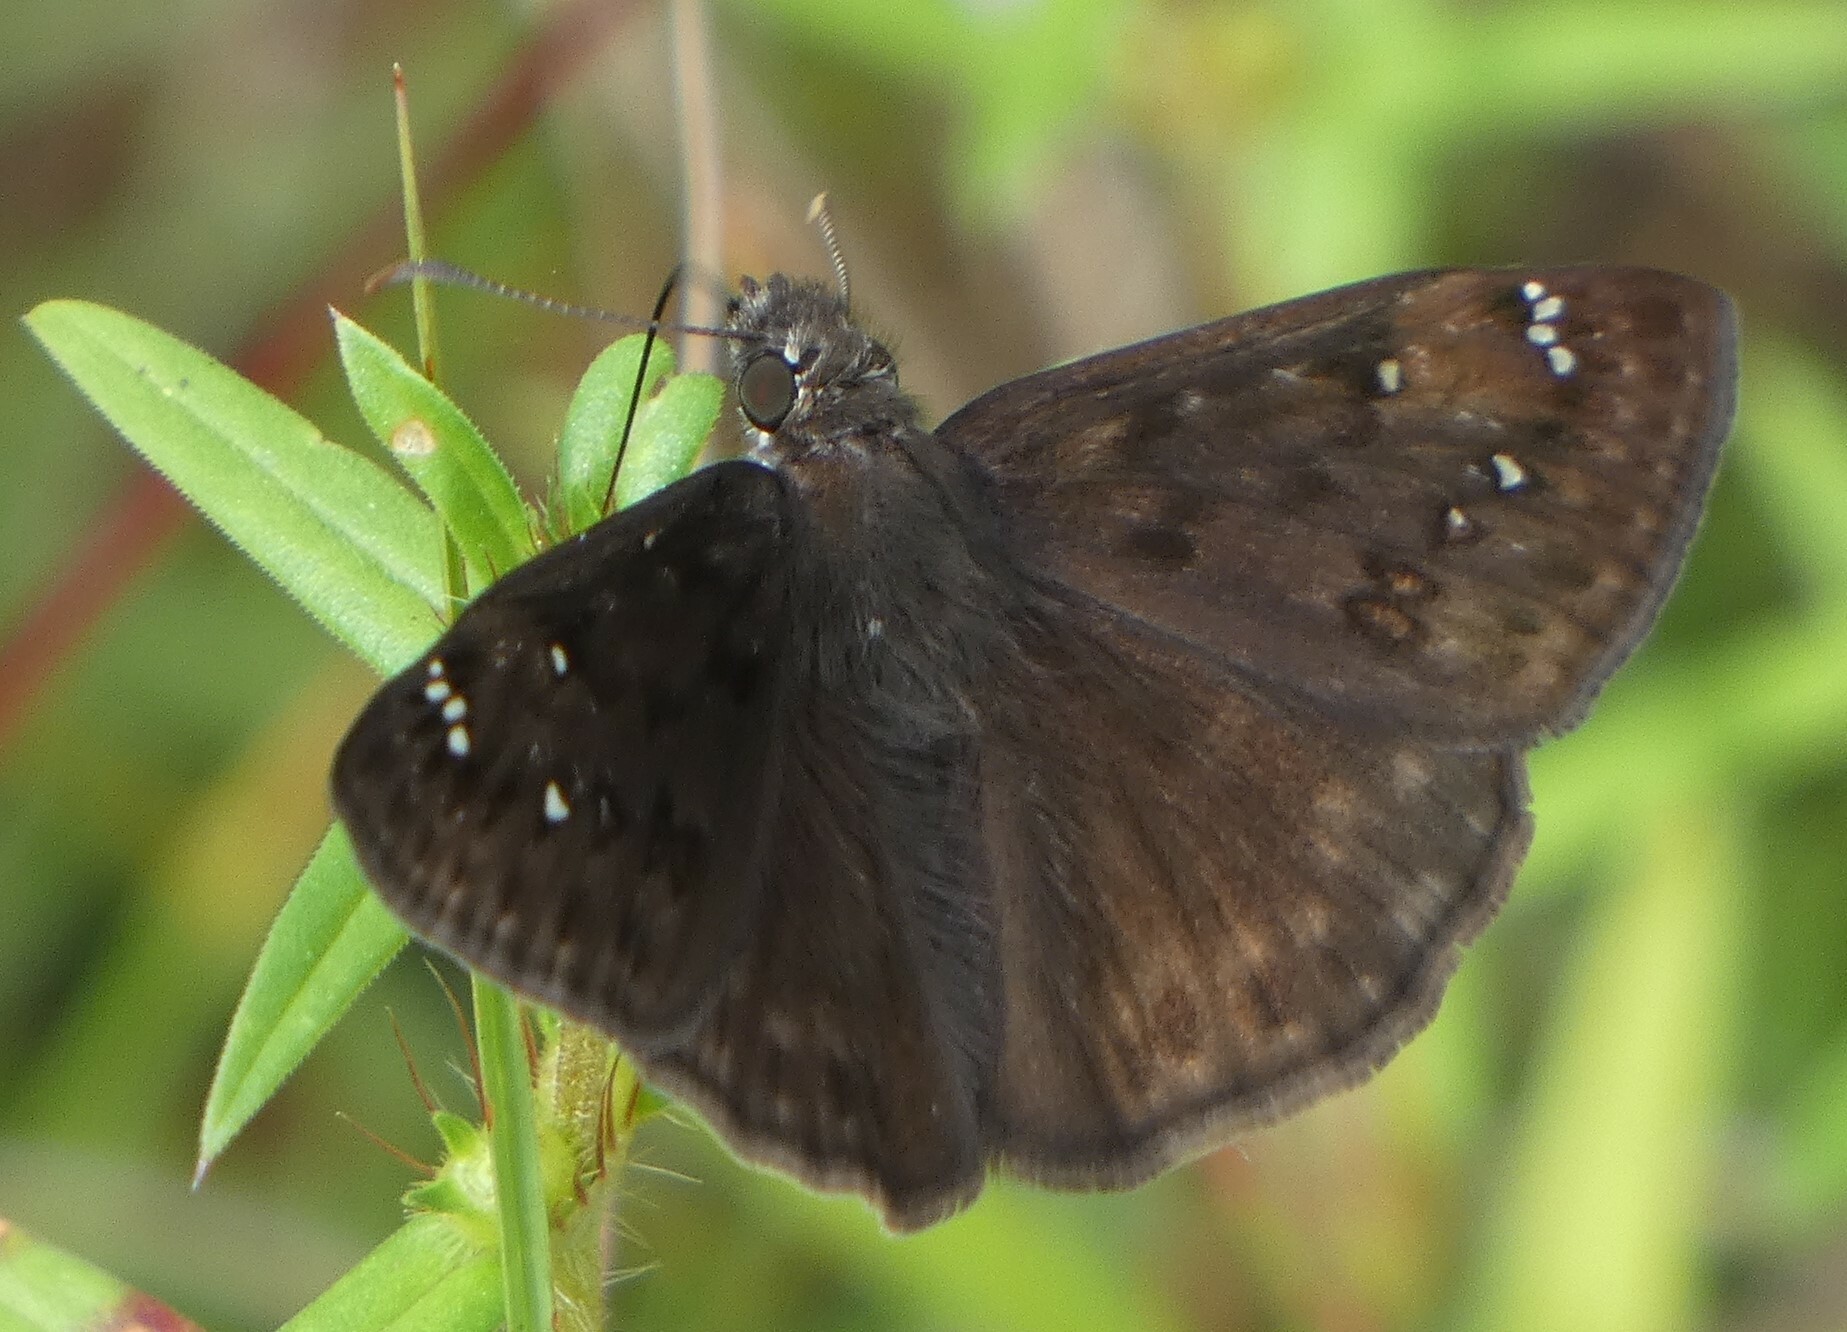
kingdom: Animalia
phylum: Arthropoda
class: Insecta
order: Lepidoptera
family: Hesperiidae
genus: Erynnis
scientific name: Erynnis horatius
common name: Horace's duskywing
